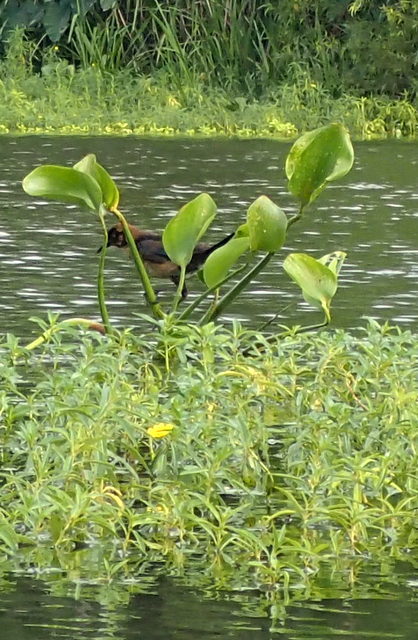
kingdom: Animalia
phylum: Chordata
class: Aves
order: Passeriformes
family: Icteridae
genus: Quiscalus
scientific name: Quiscalus major
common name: Boat-tailed grackle
